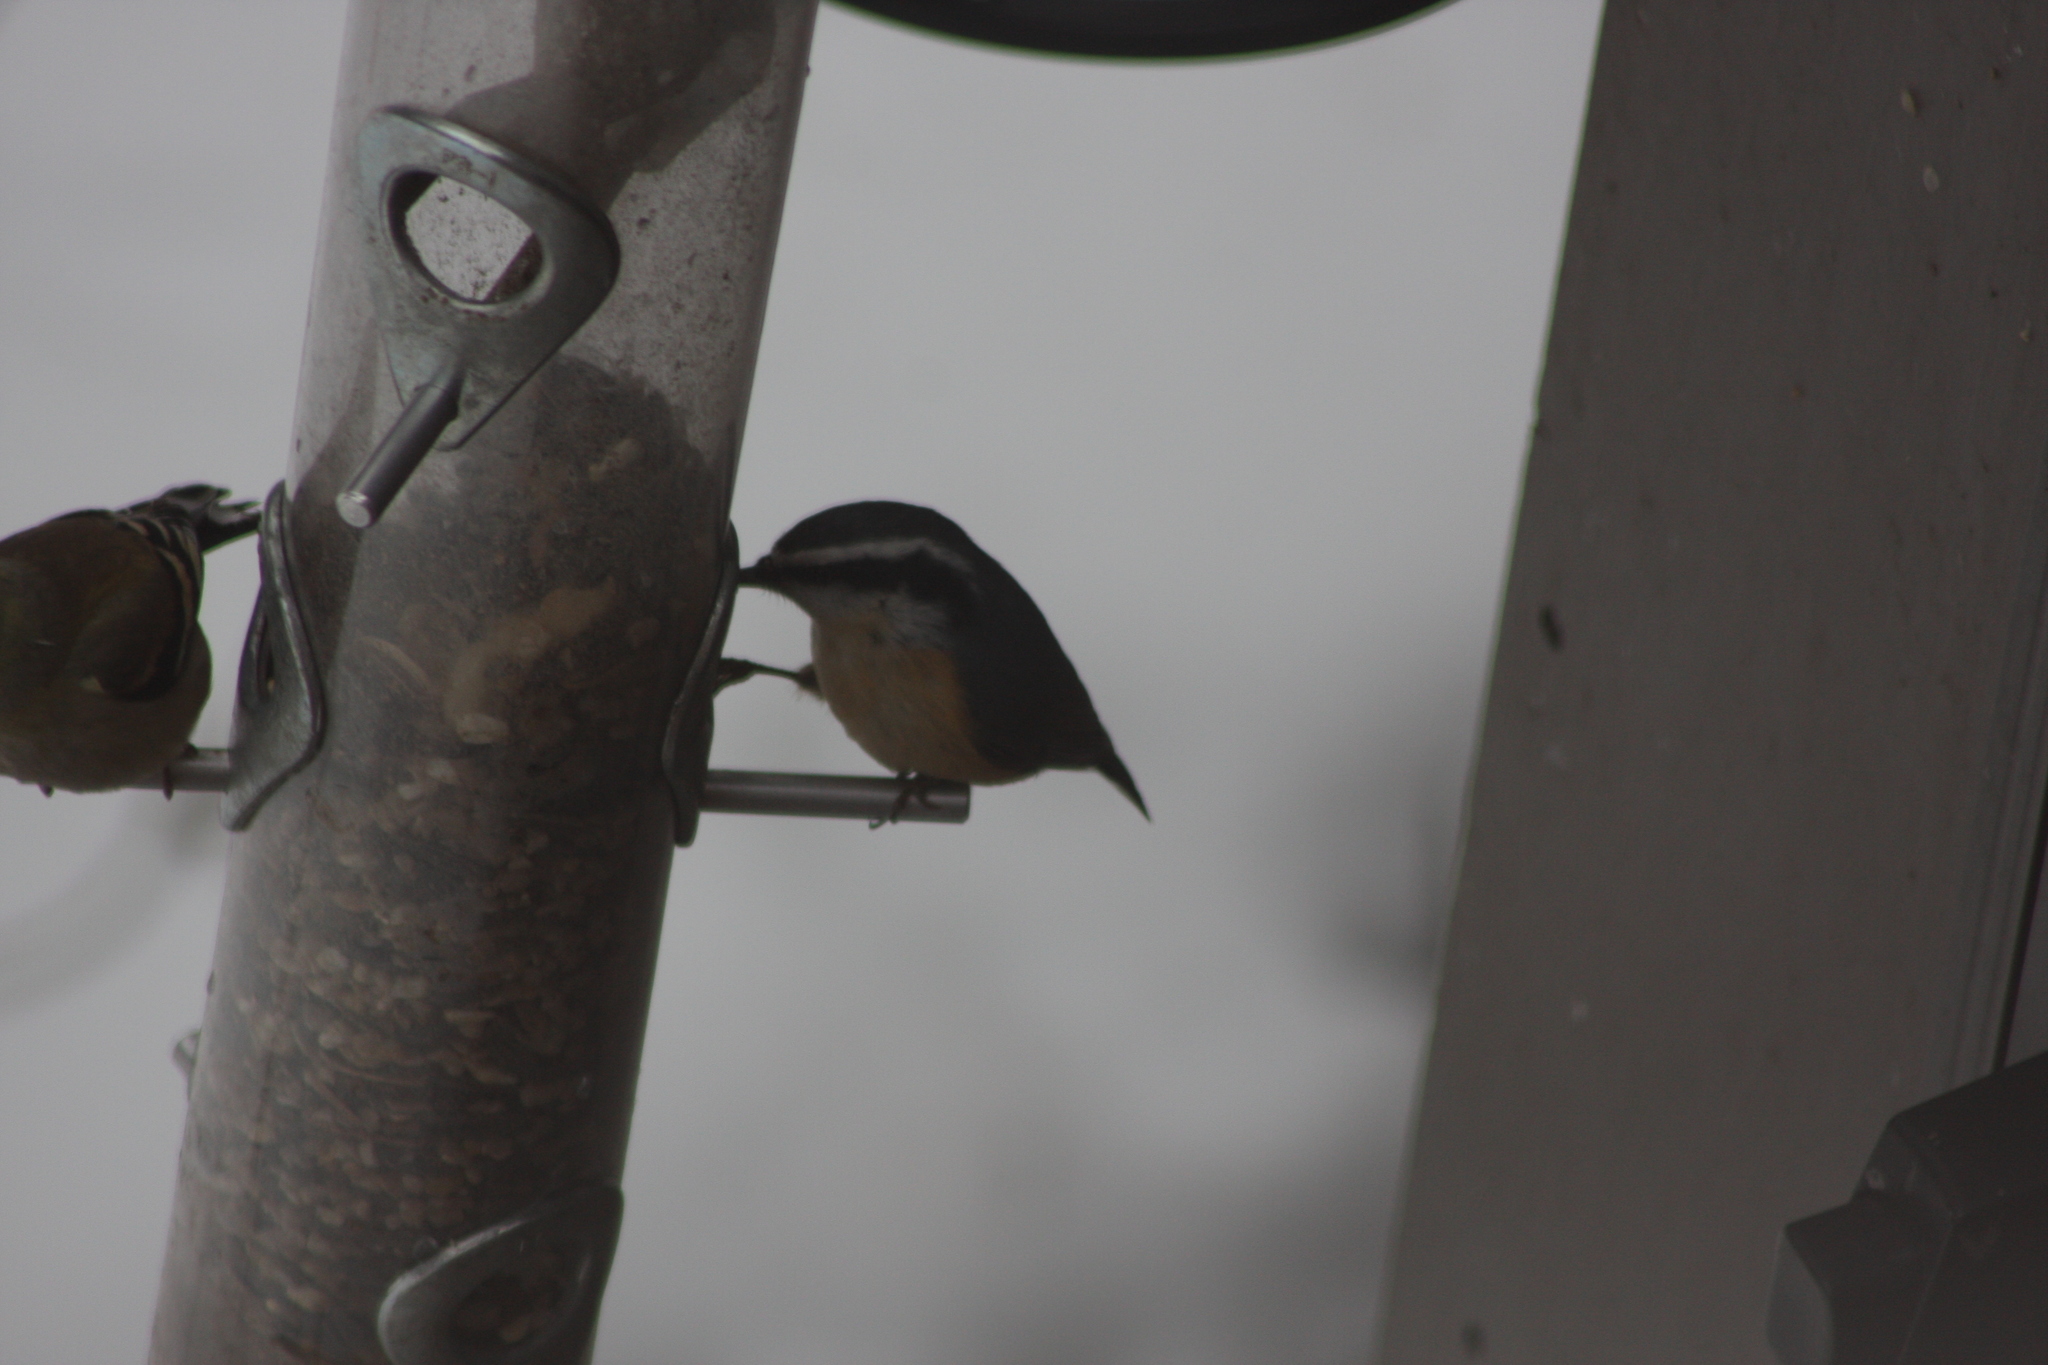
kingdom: Animalia
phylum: Chordata
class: Aves
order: Passeriformes
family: Sittidae
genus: Sitta
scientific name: Sitta canadensis
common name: Red-breasted nuthatch
